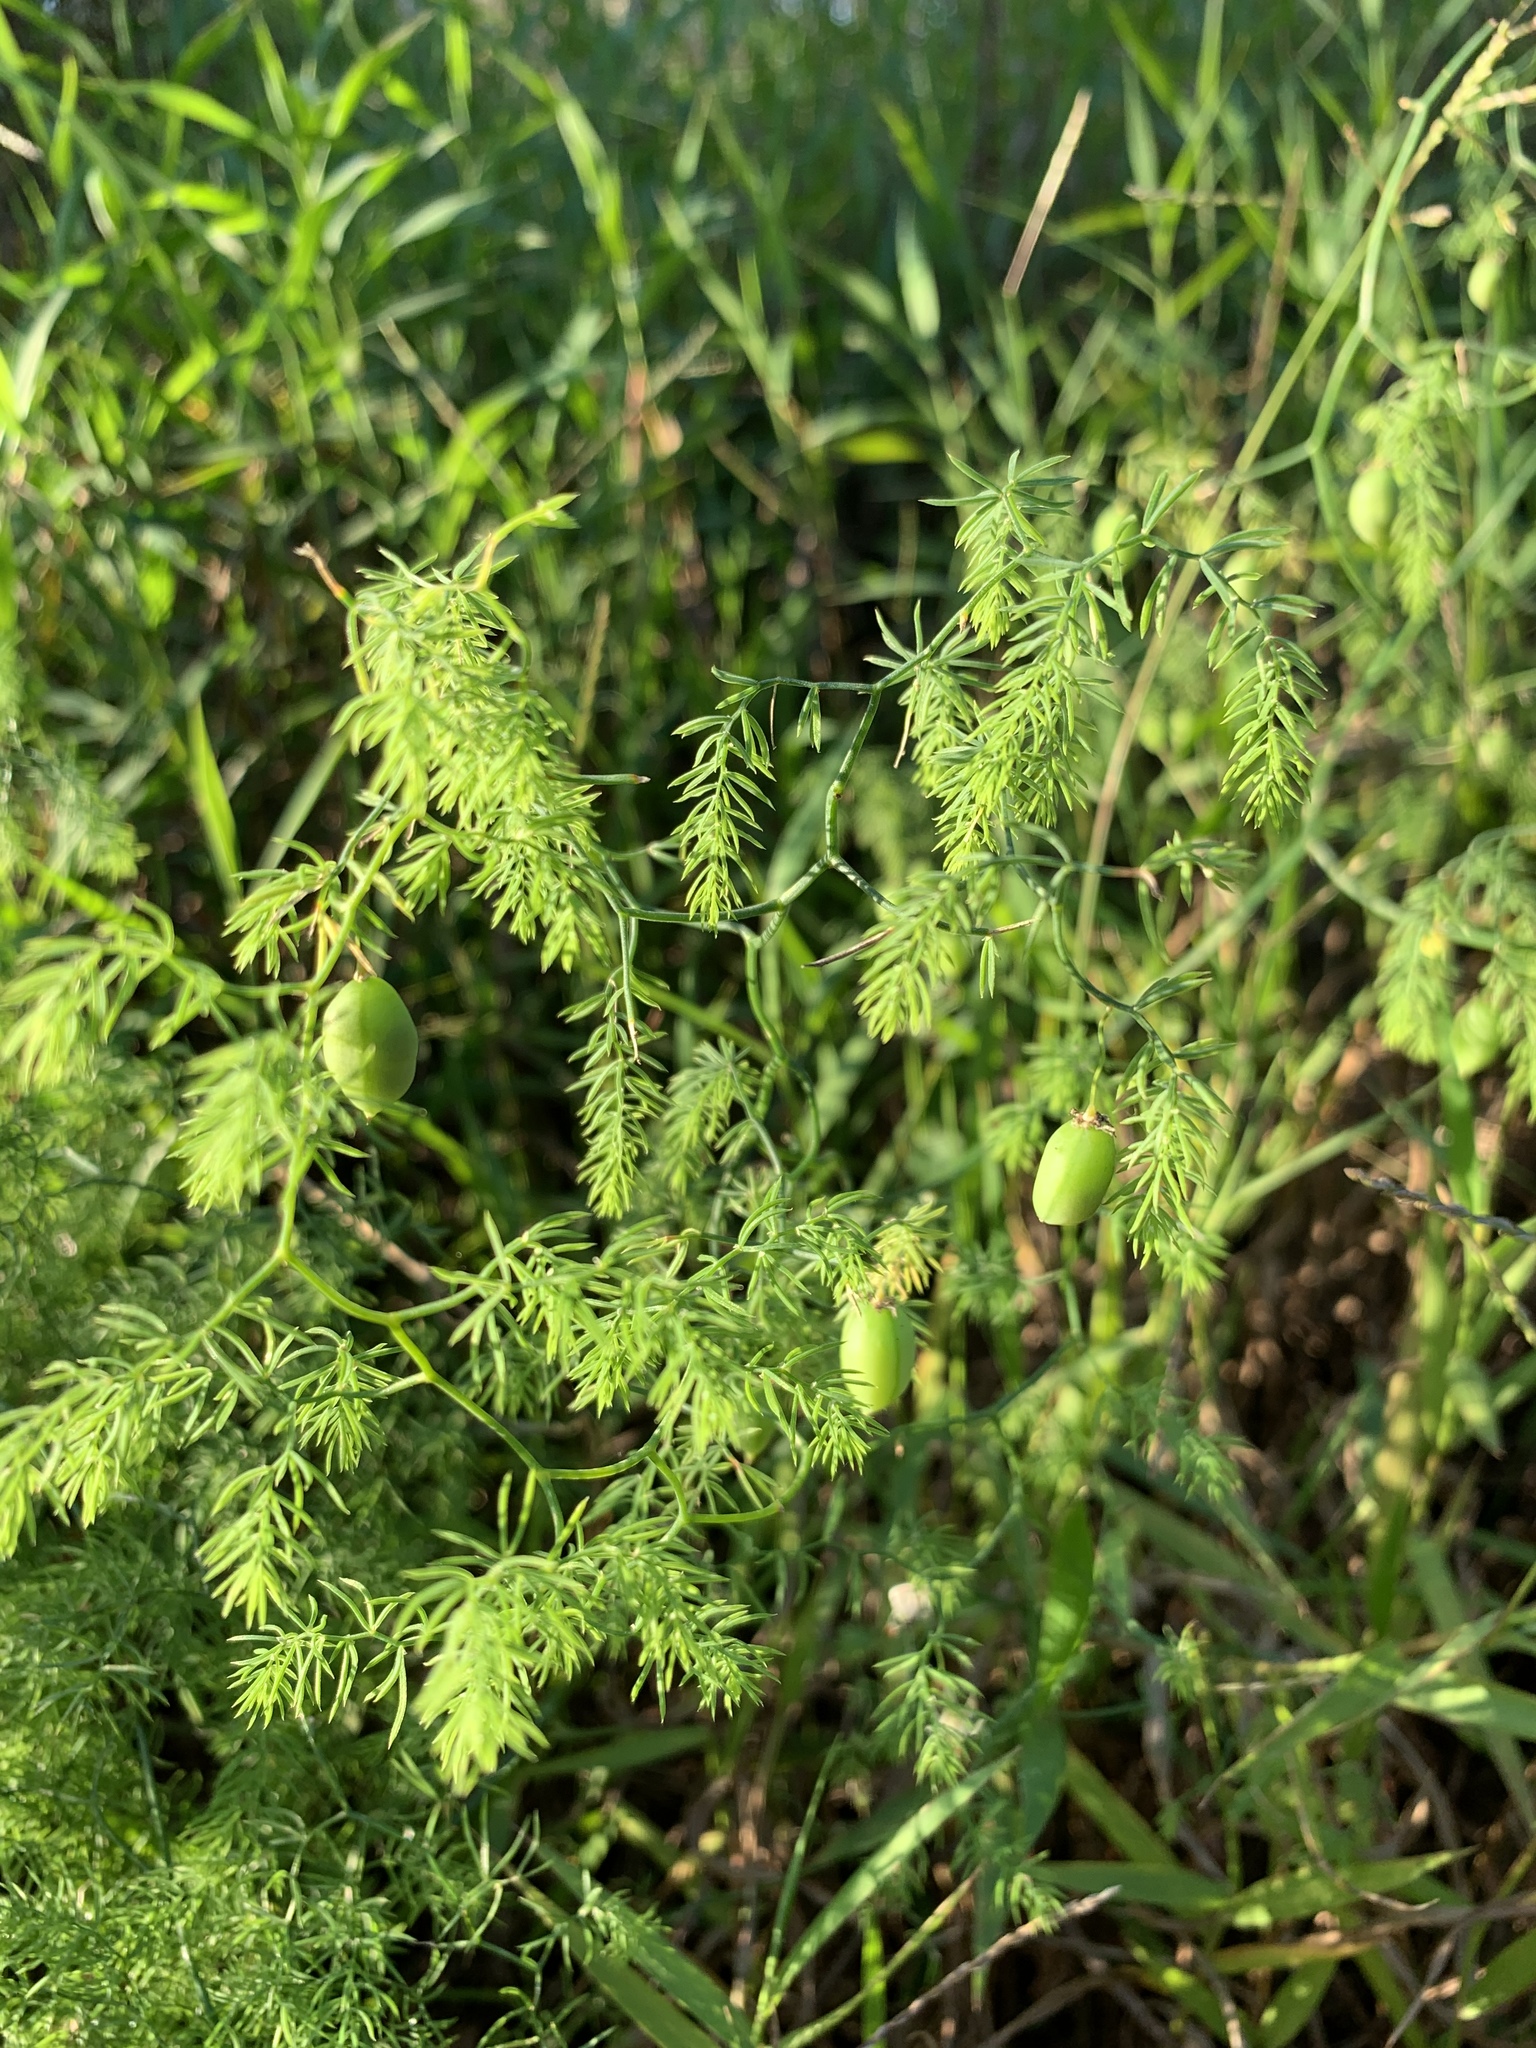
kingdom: Plantae
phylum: Tracheophyta
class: Liliopsida
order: Asparagales
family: Asparagaceae
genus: Asparagus
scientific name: Asparagus declinatus
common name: Bridal-creeper
